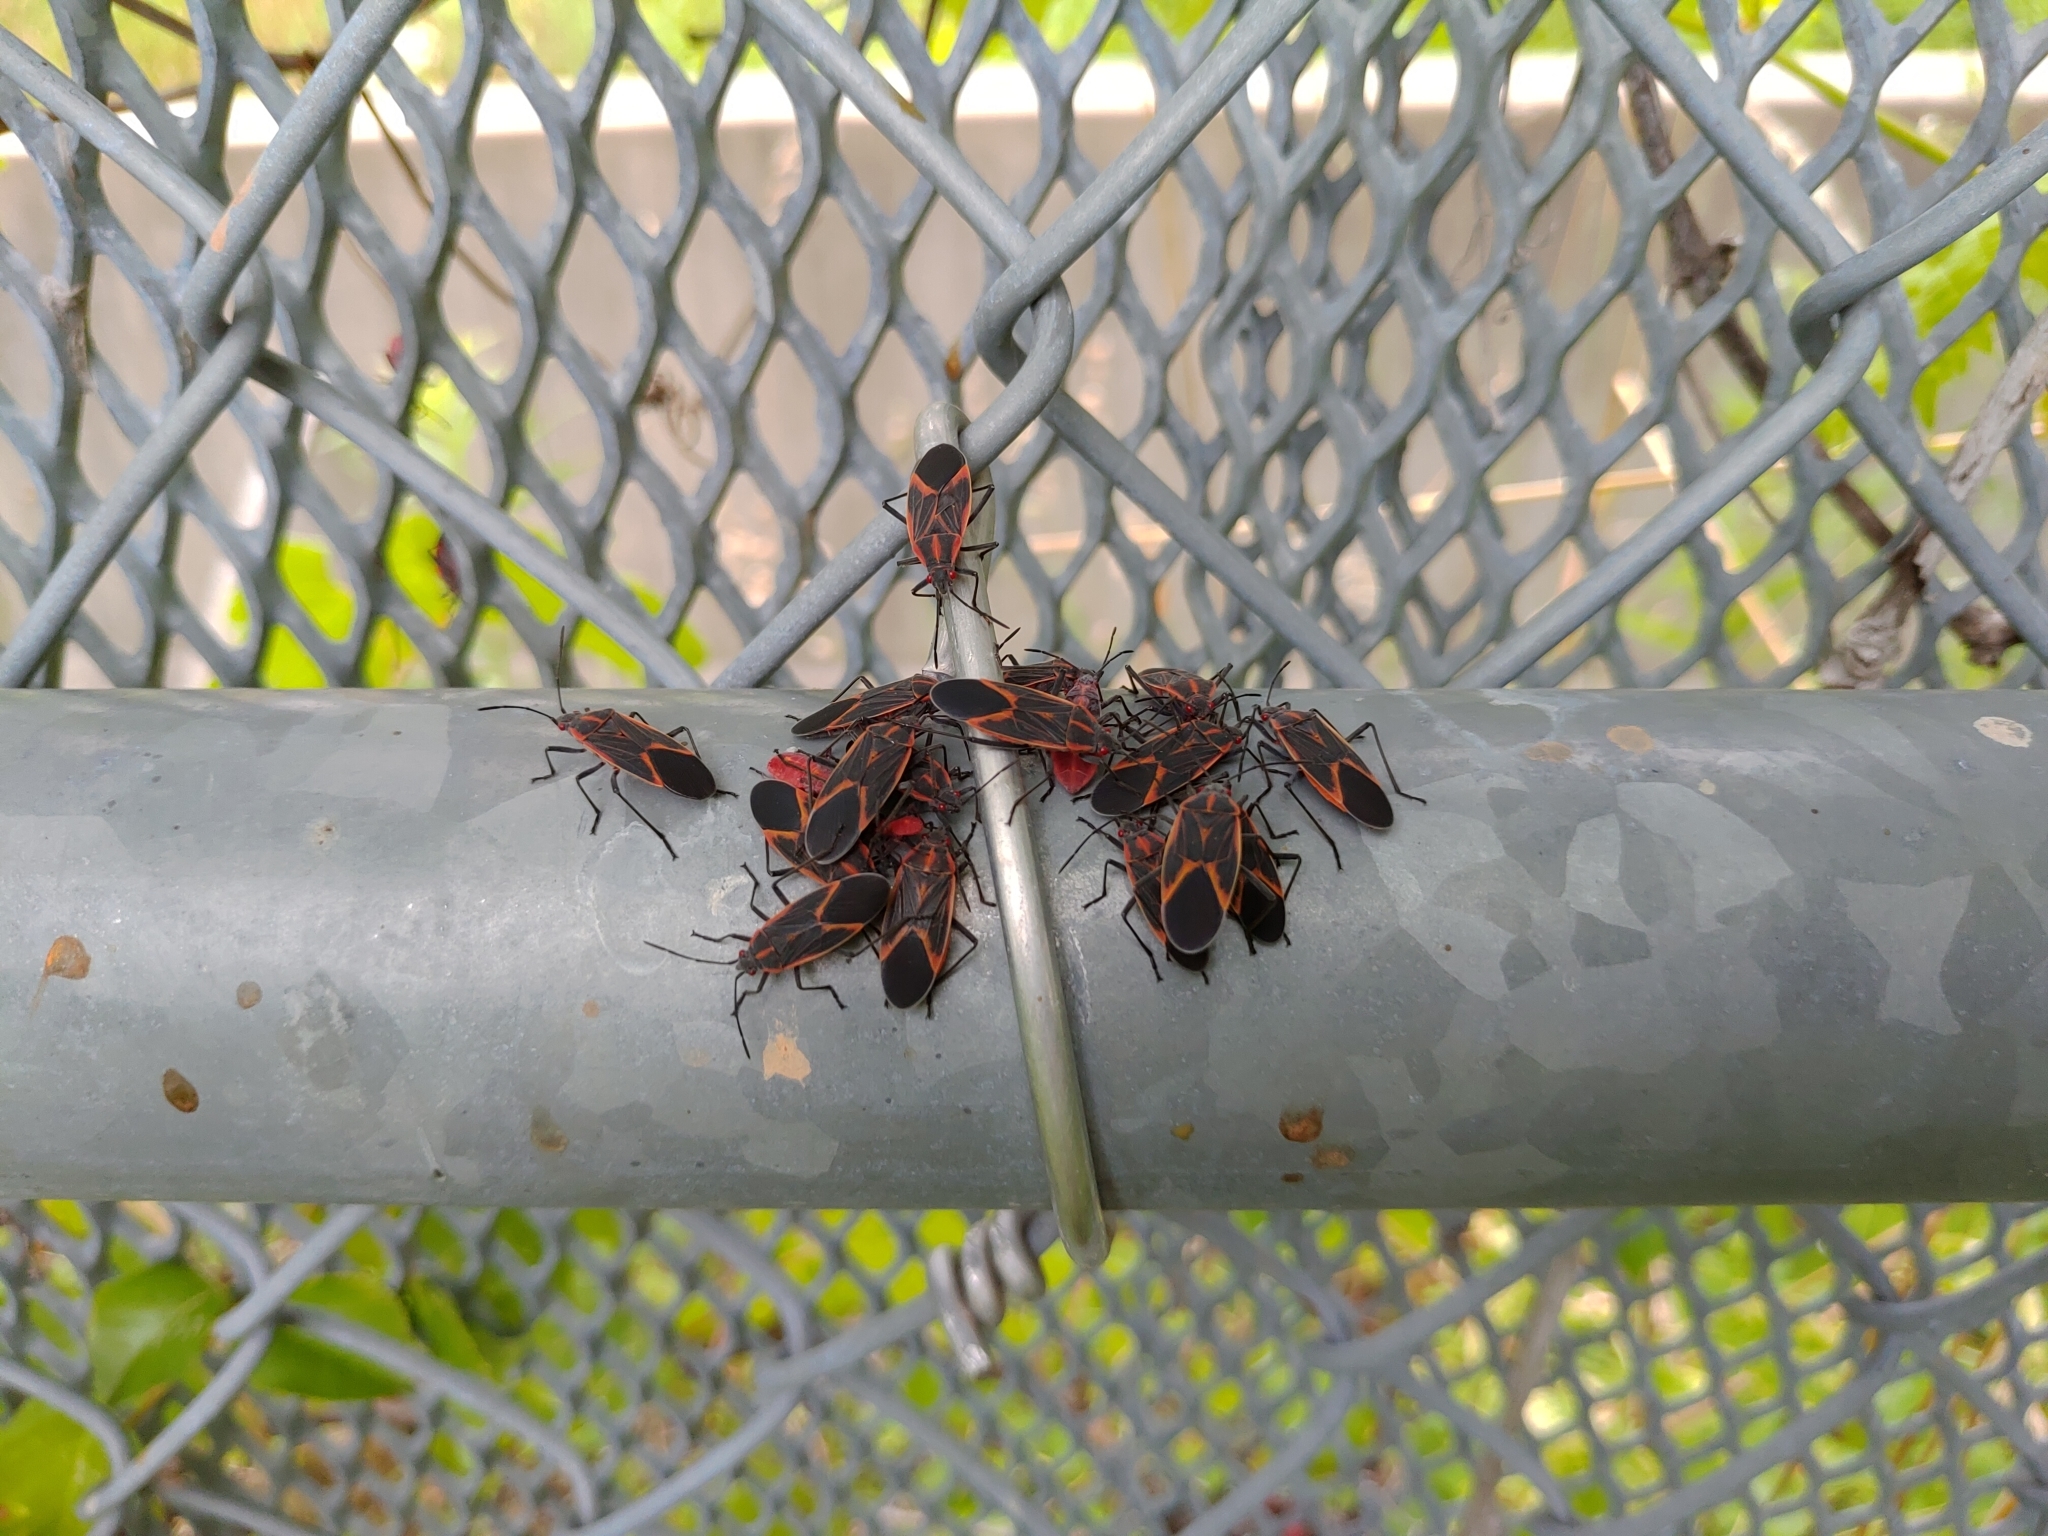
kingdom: Animalia
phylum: Arthropoda
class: Insecta
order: Hemiptera
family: Rhopalidae
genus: Boisea
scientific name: Boisea trivittata
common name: Boxelder bug
